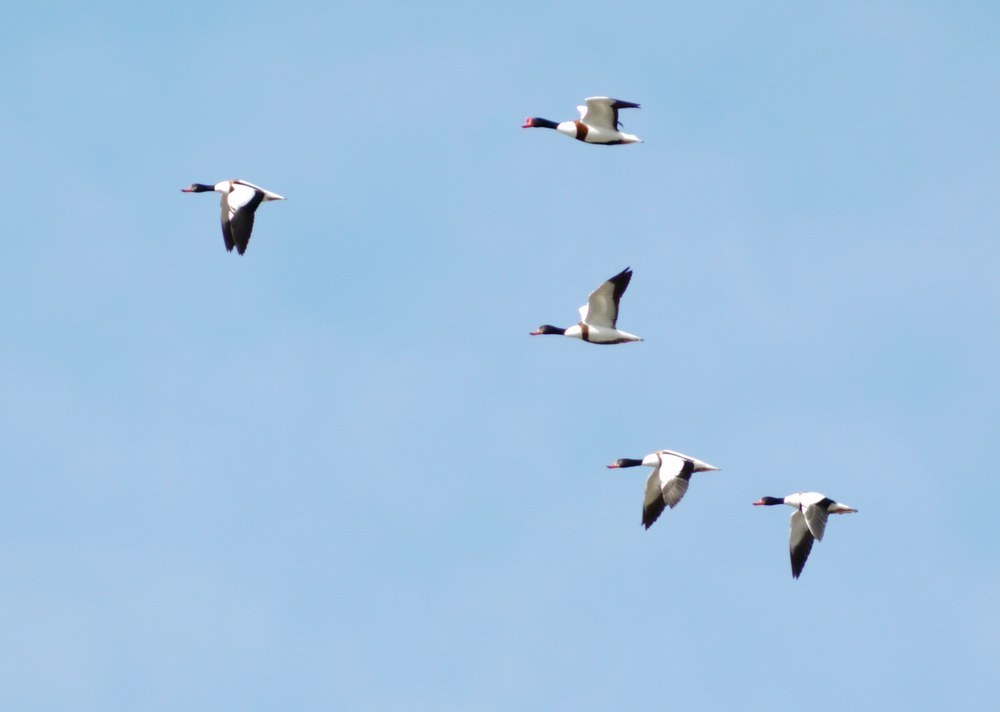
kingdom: Animalia
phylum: Chordata
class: Aves
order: Anseriformes
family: Anatidae
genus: Tadorna
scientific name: Tadorna tadorna
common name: Common shelduck
